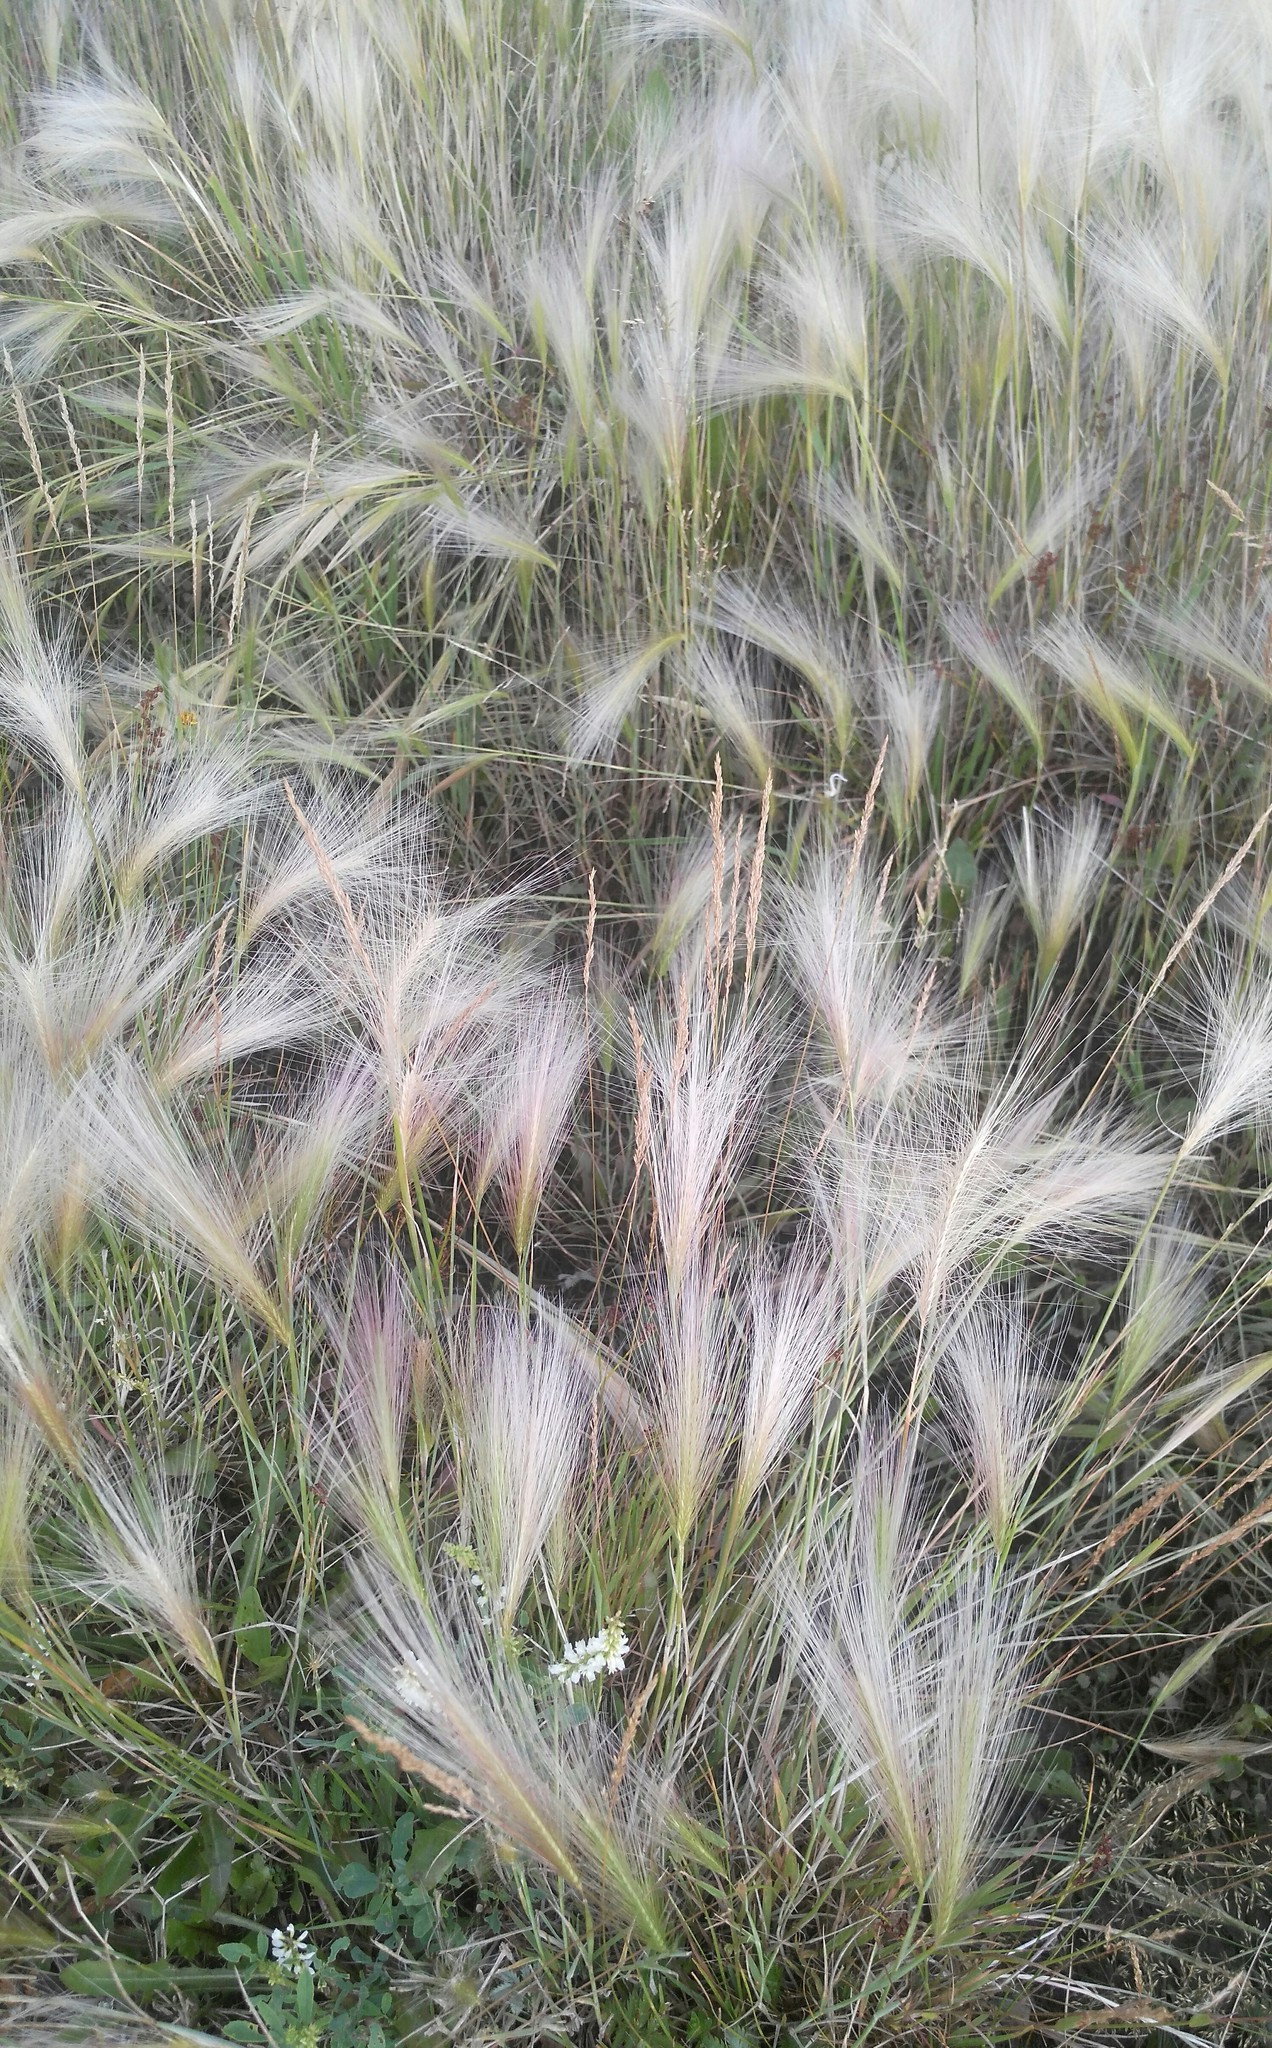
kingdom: Plantae
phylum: Tracheophyta
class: Liliopsida
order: Poales
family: Poaceae
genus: Hordeum
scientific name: Hordeum jubatum
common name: Foxtail barley
